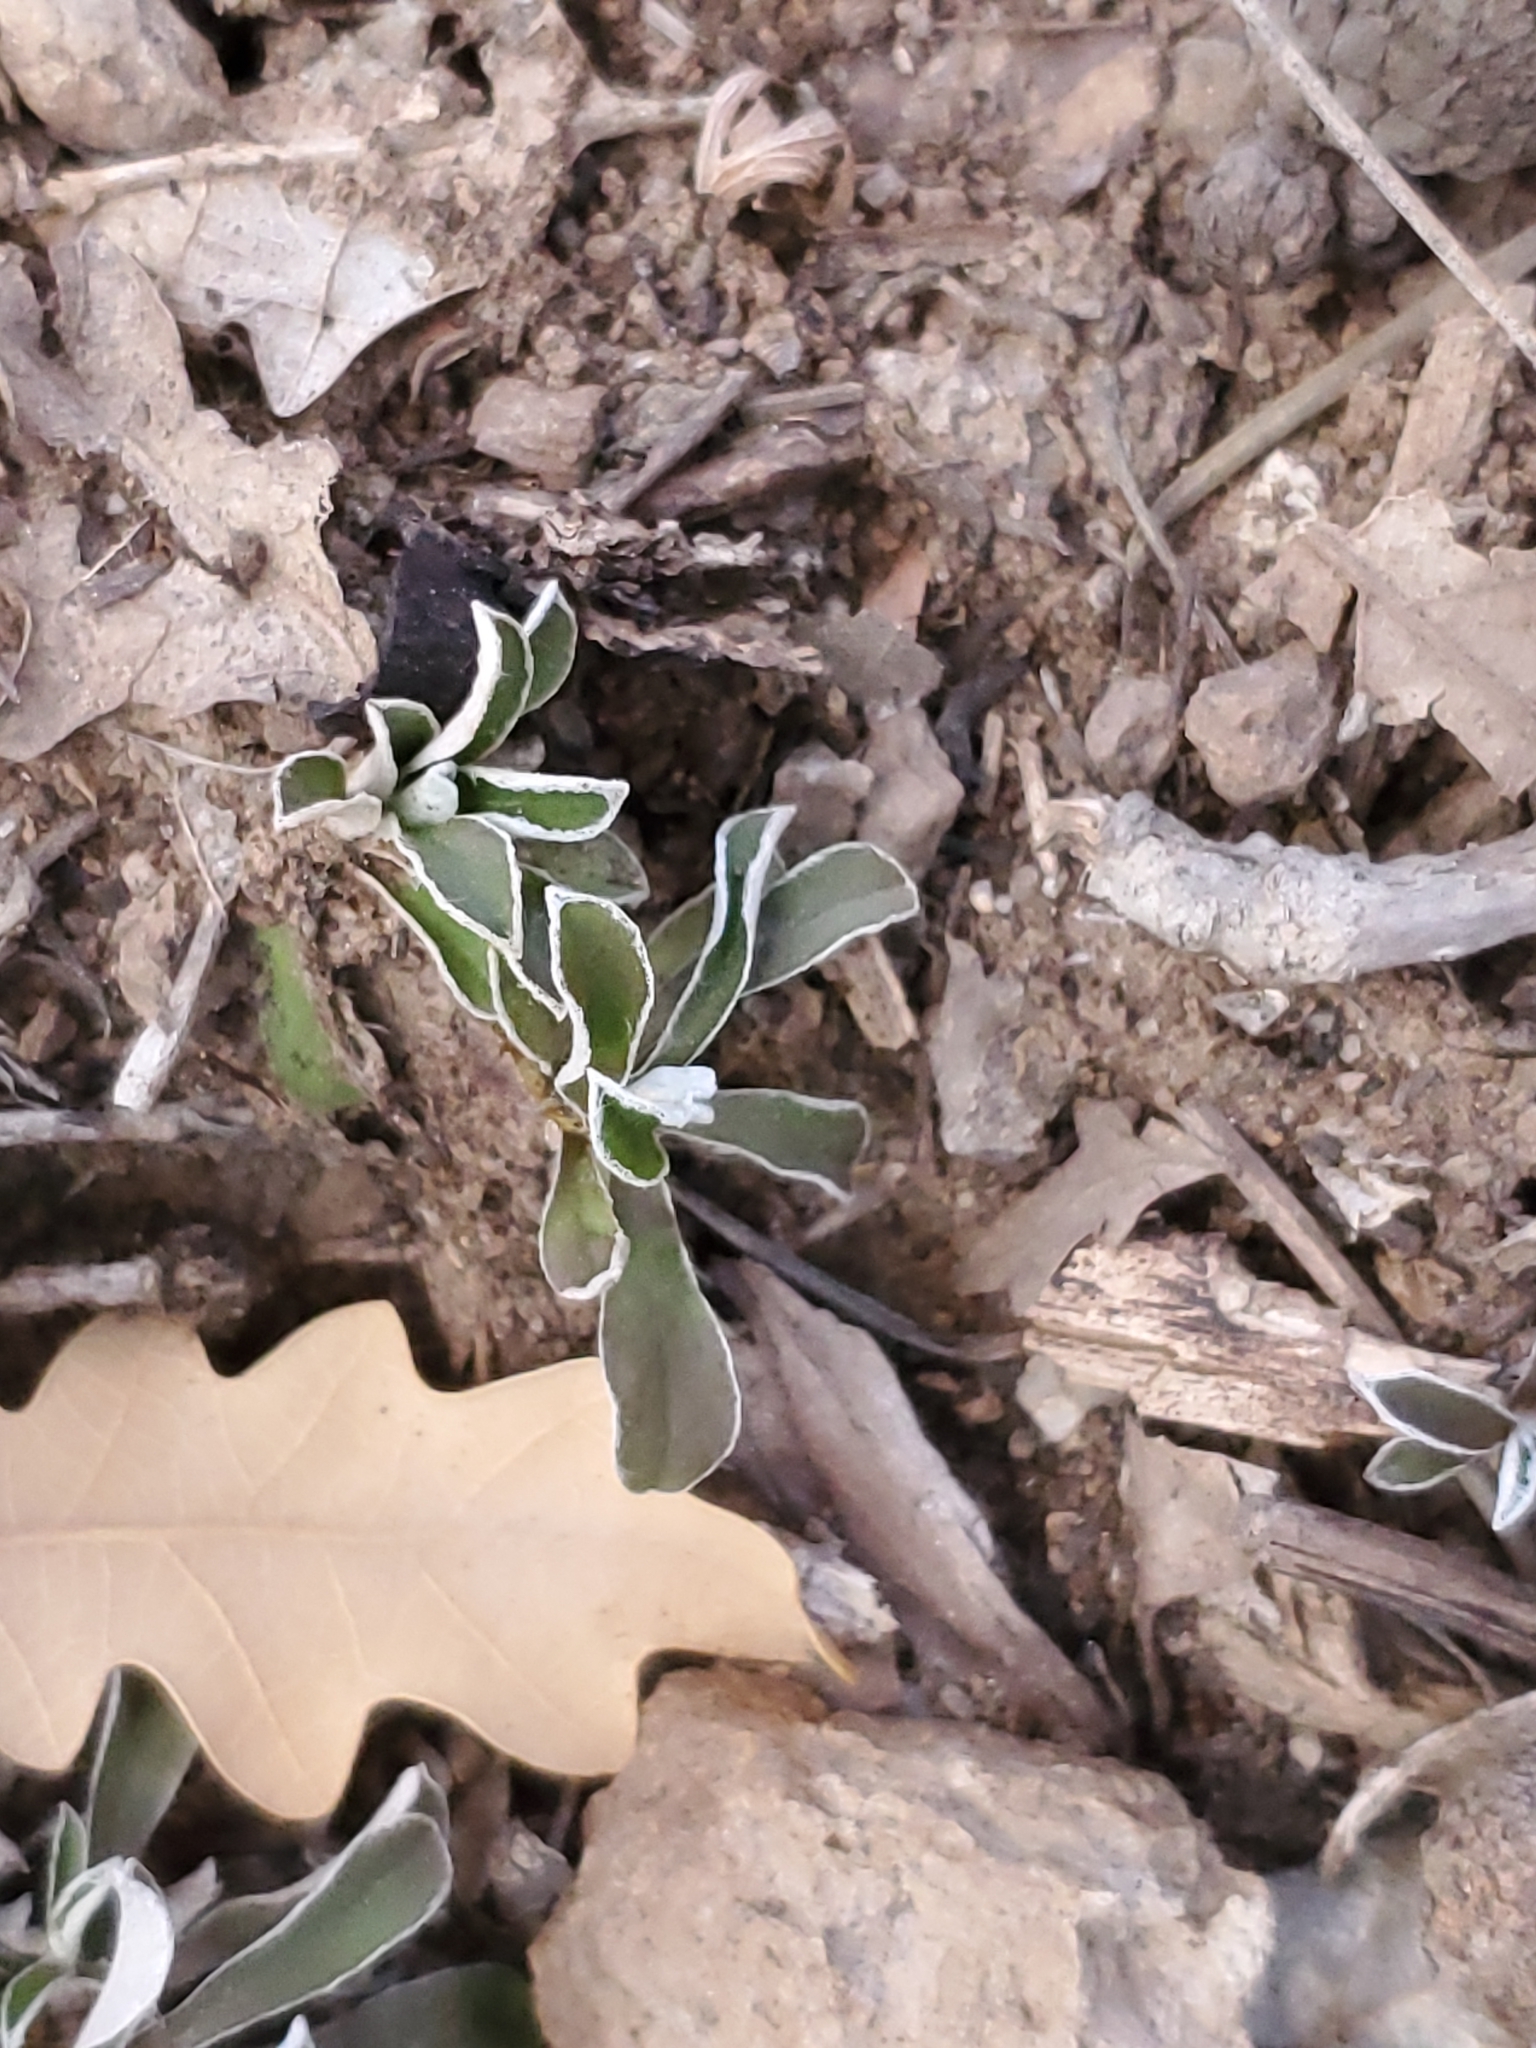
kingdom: Plantae
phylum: Tracheophyta
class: Magnoliopsida
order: Asterales
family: Asteraceae
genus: Antennaria
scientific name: Antennaria marginata
